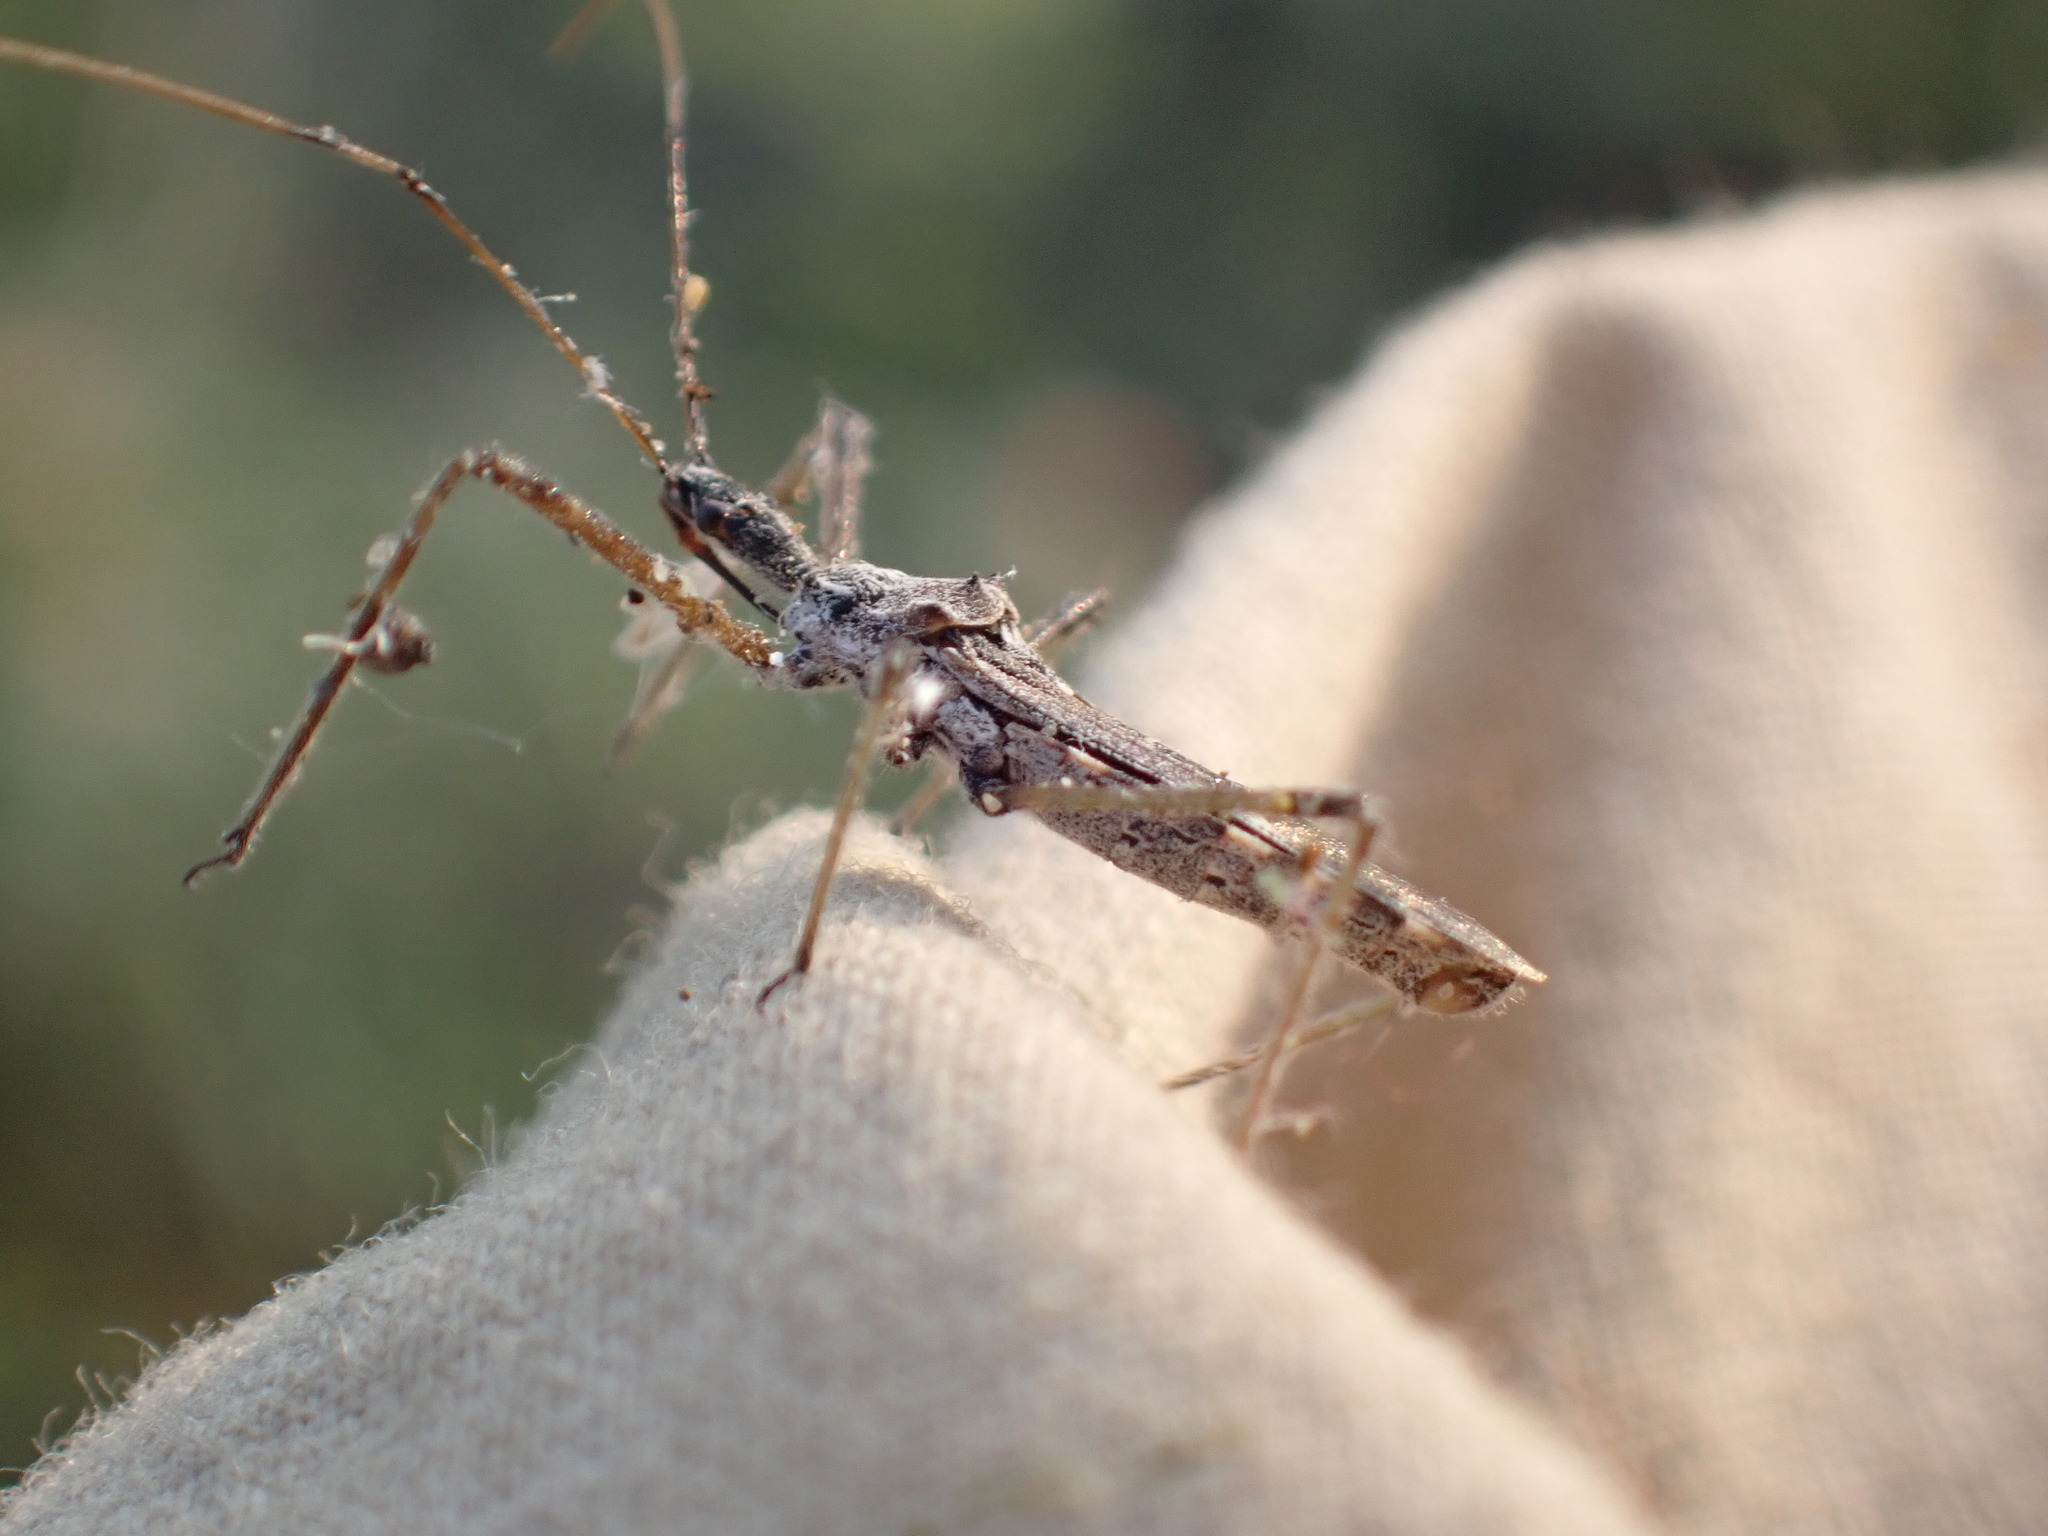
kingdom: Animalia
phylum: Arthropoda
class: Insecta
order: Hemiptera
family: Reduviidae
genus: Zelus
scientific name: Zelus tetracanthus
